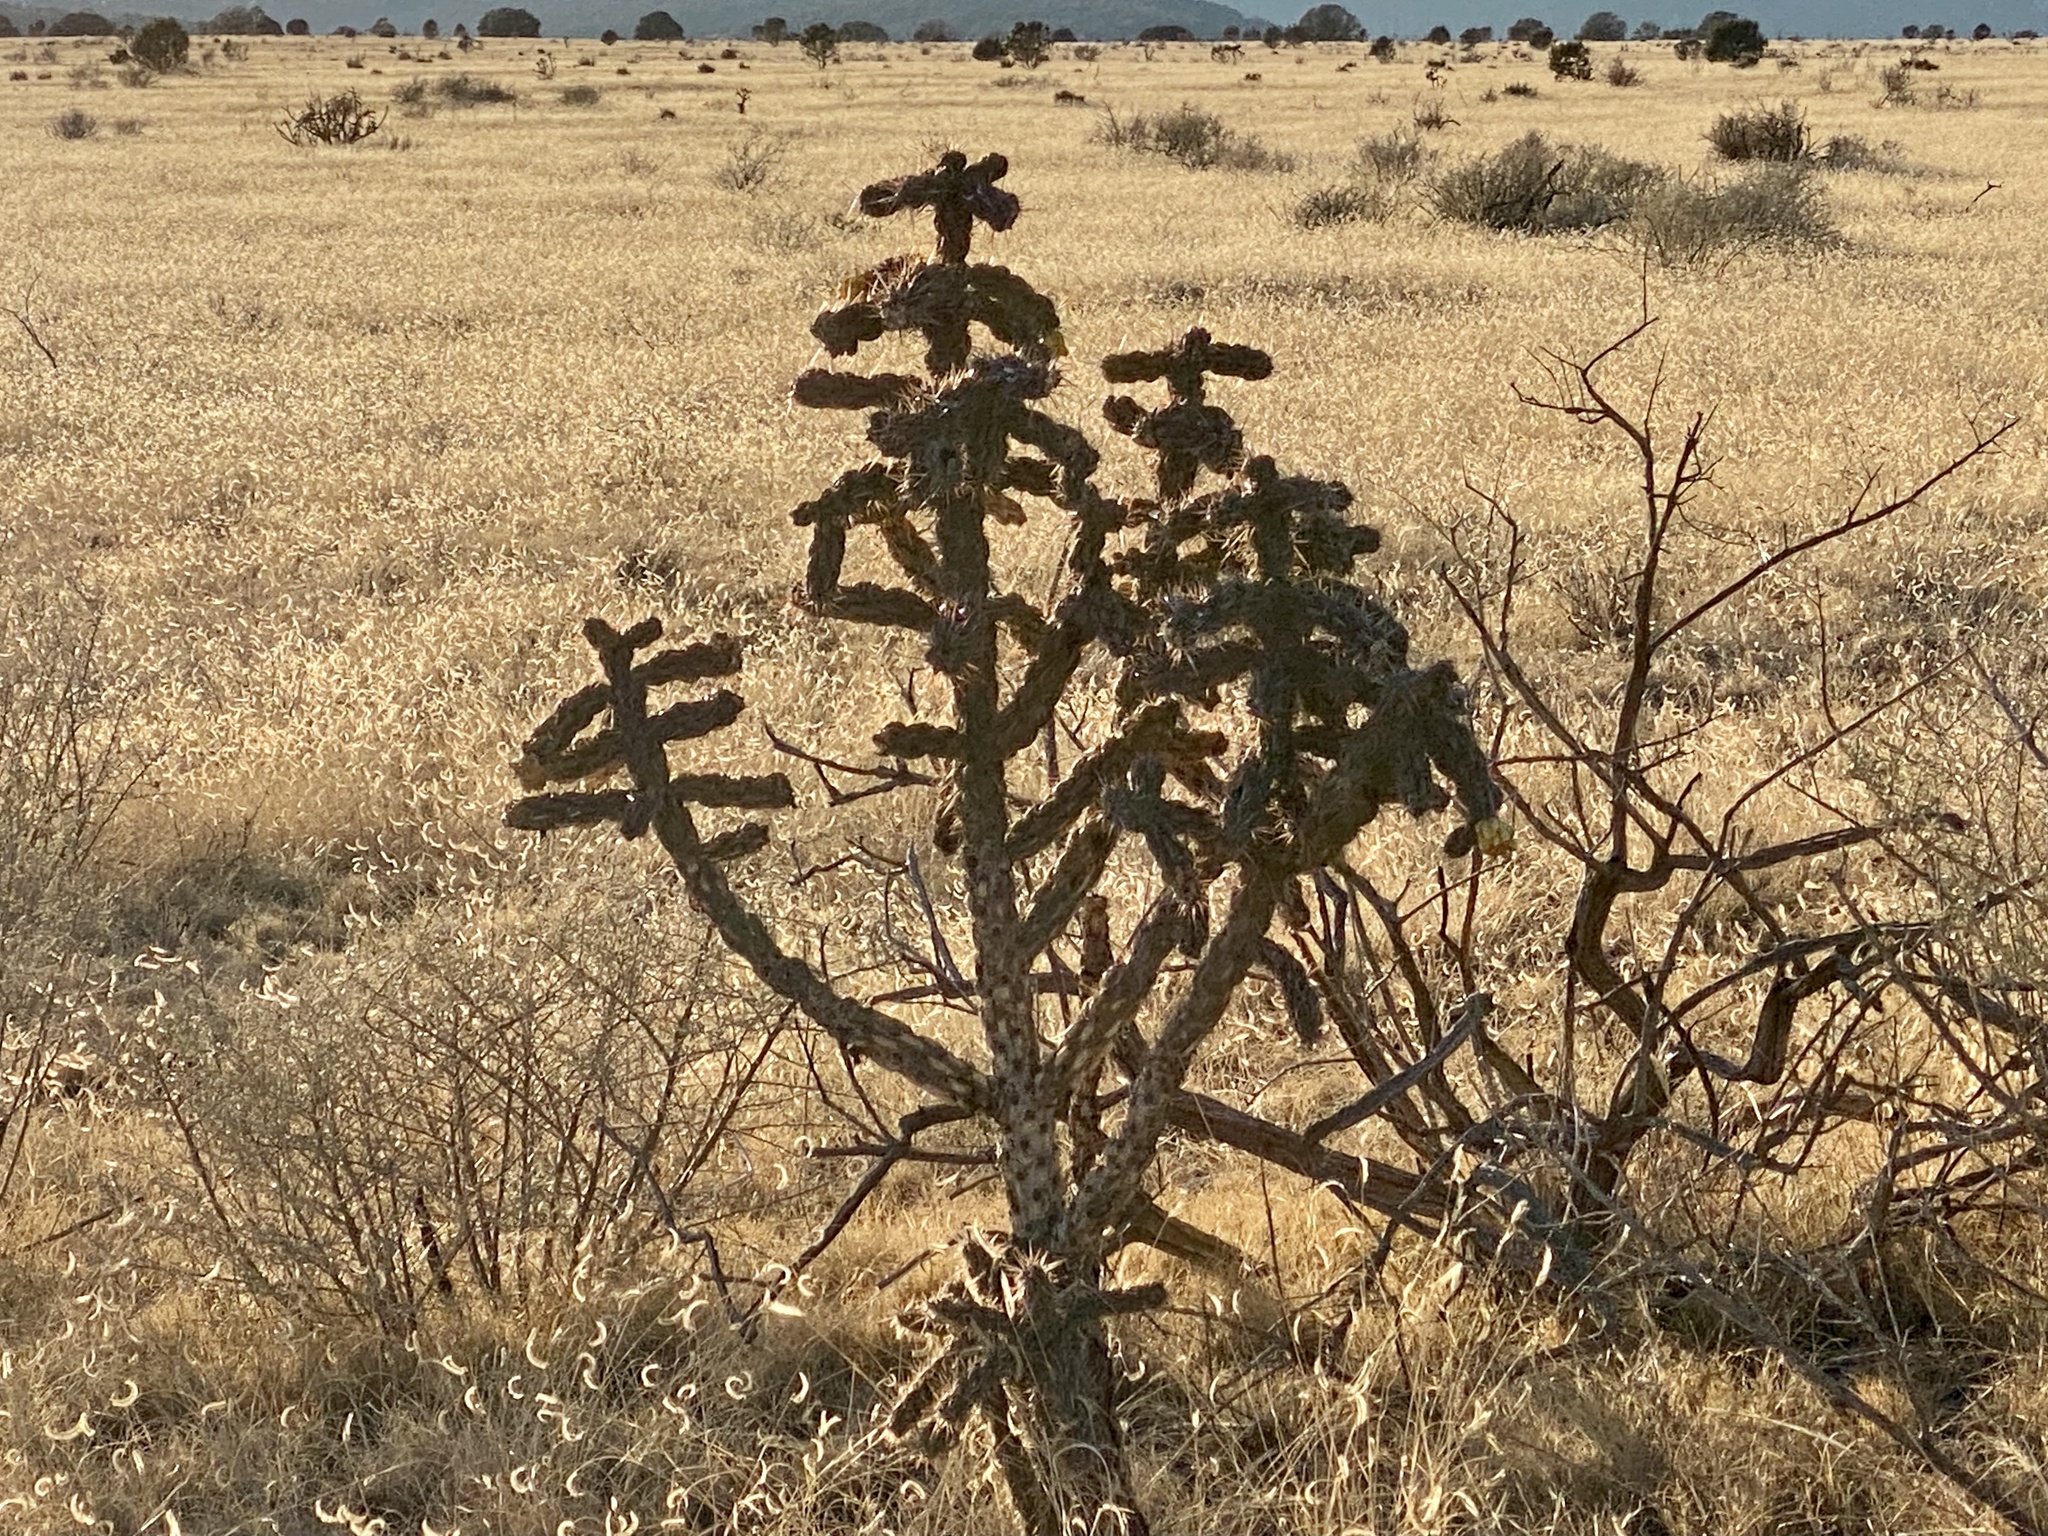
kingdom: Plantae
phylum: Tracheophyta
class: Magnoliopsida
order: Caryophyllales
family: Cactaceae
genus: Cylindropuntia
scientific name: Cylindropuntia imbricata
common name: Candelabrum cactus
